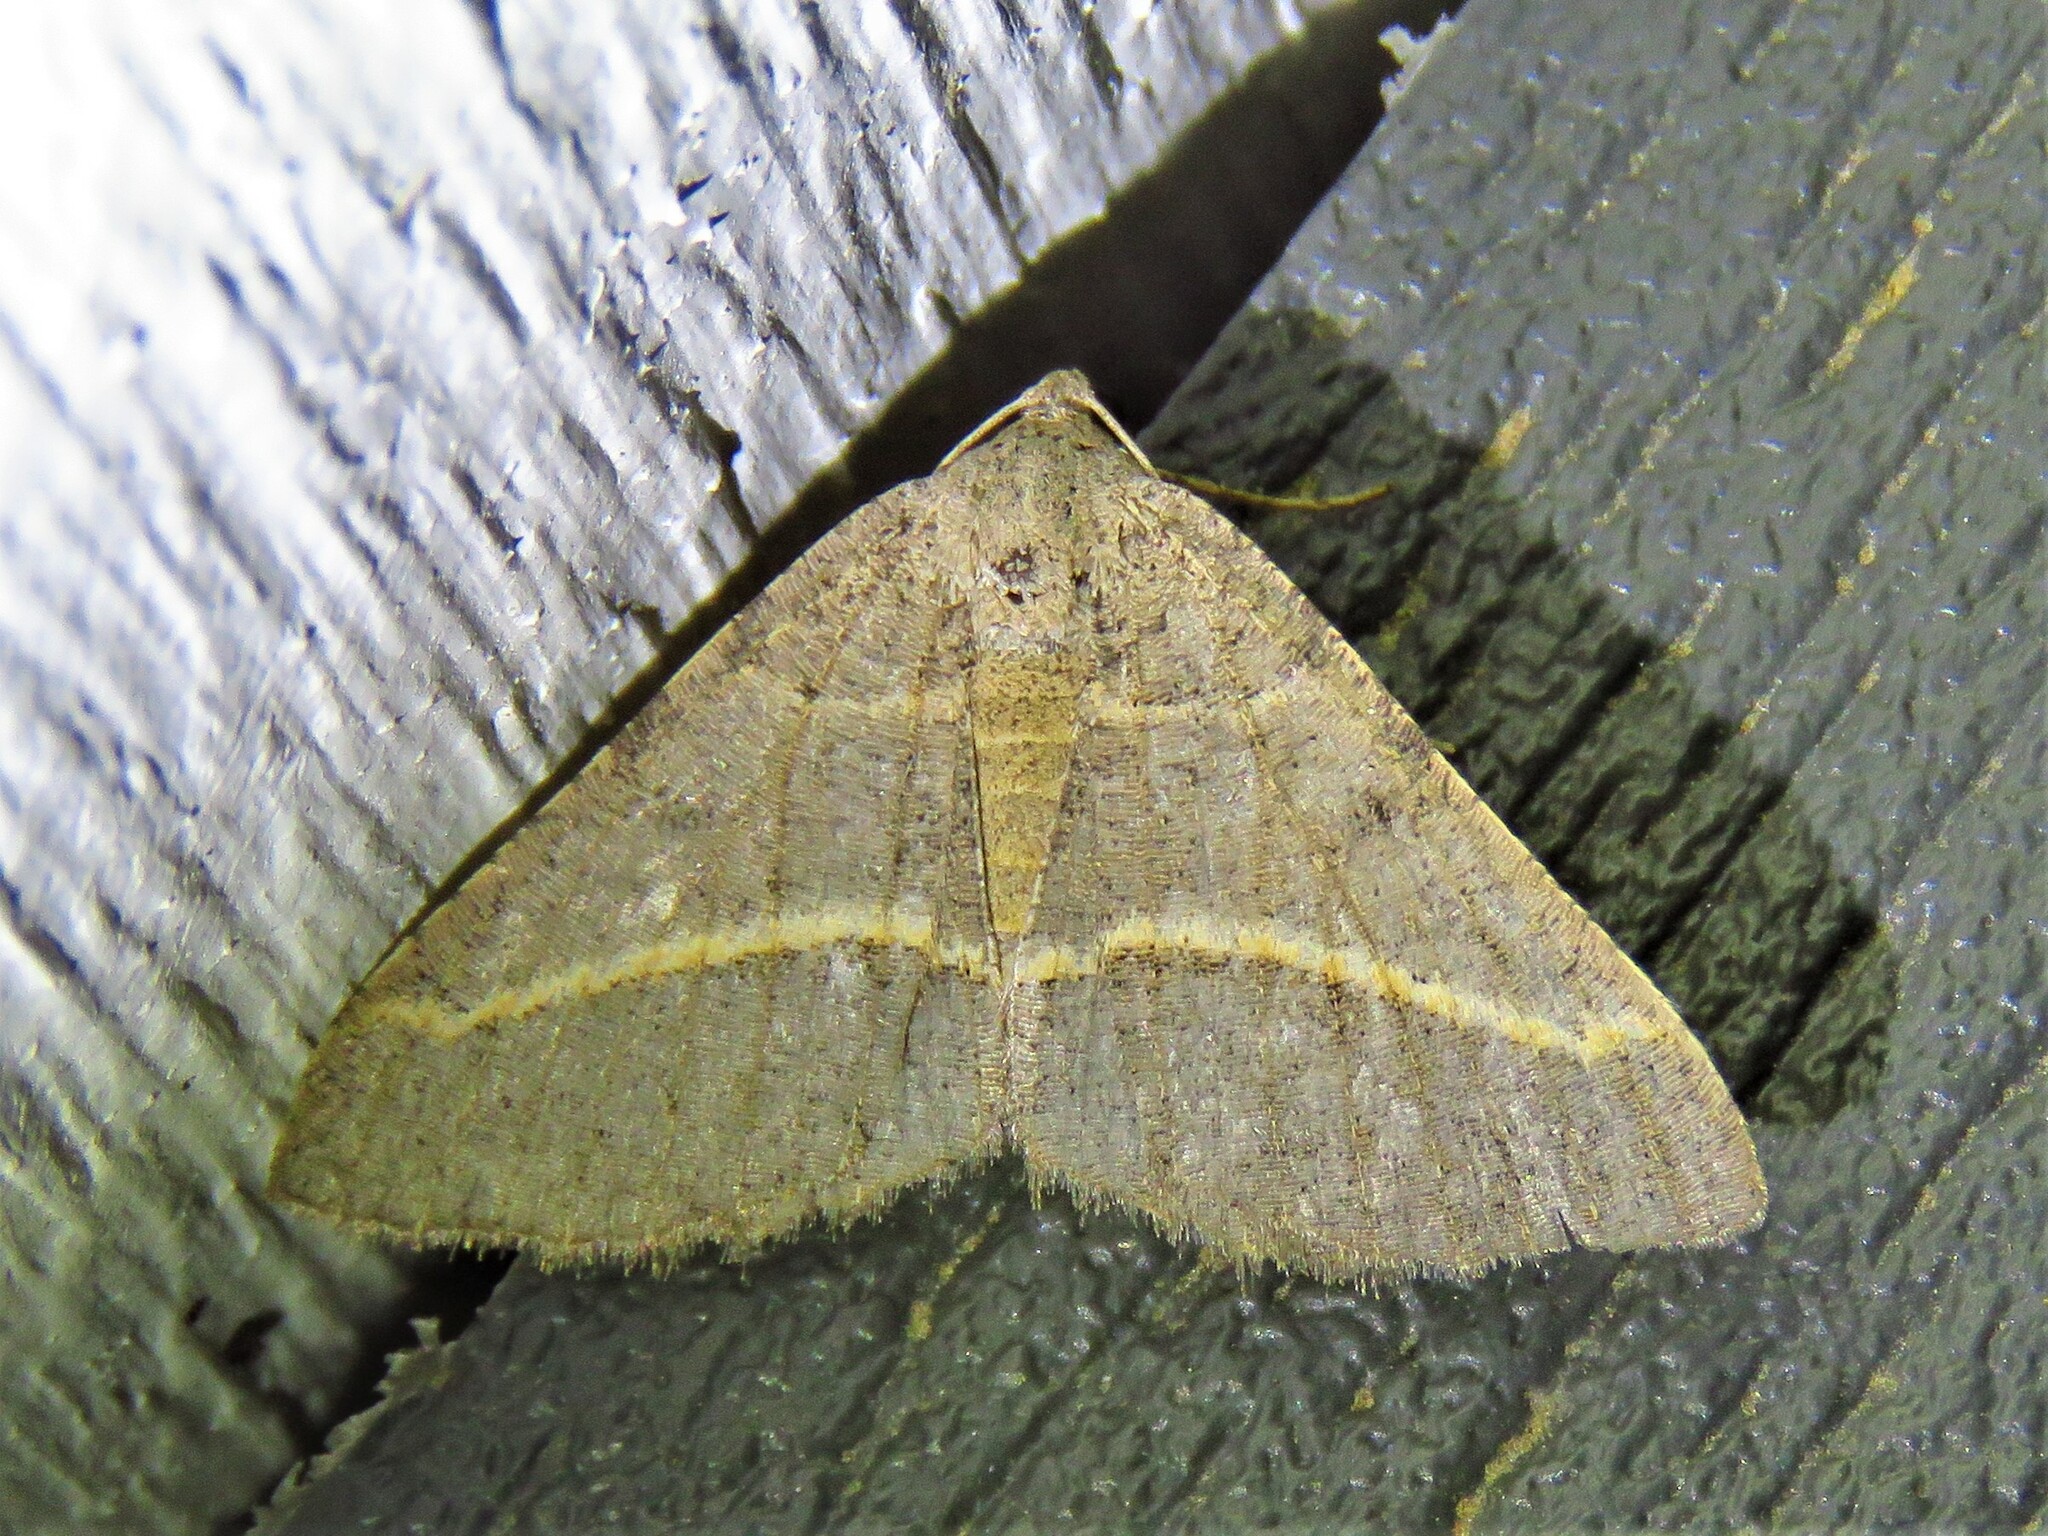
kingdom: Animalia
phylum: Arthropoda
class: Insecta
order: Lepidoptera
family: Geometridae
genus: Digrammia
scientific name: Digrammia irrorata
